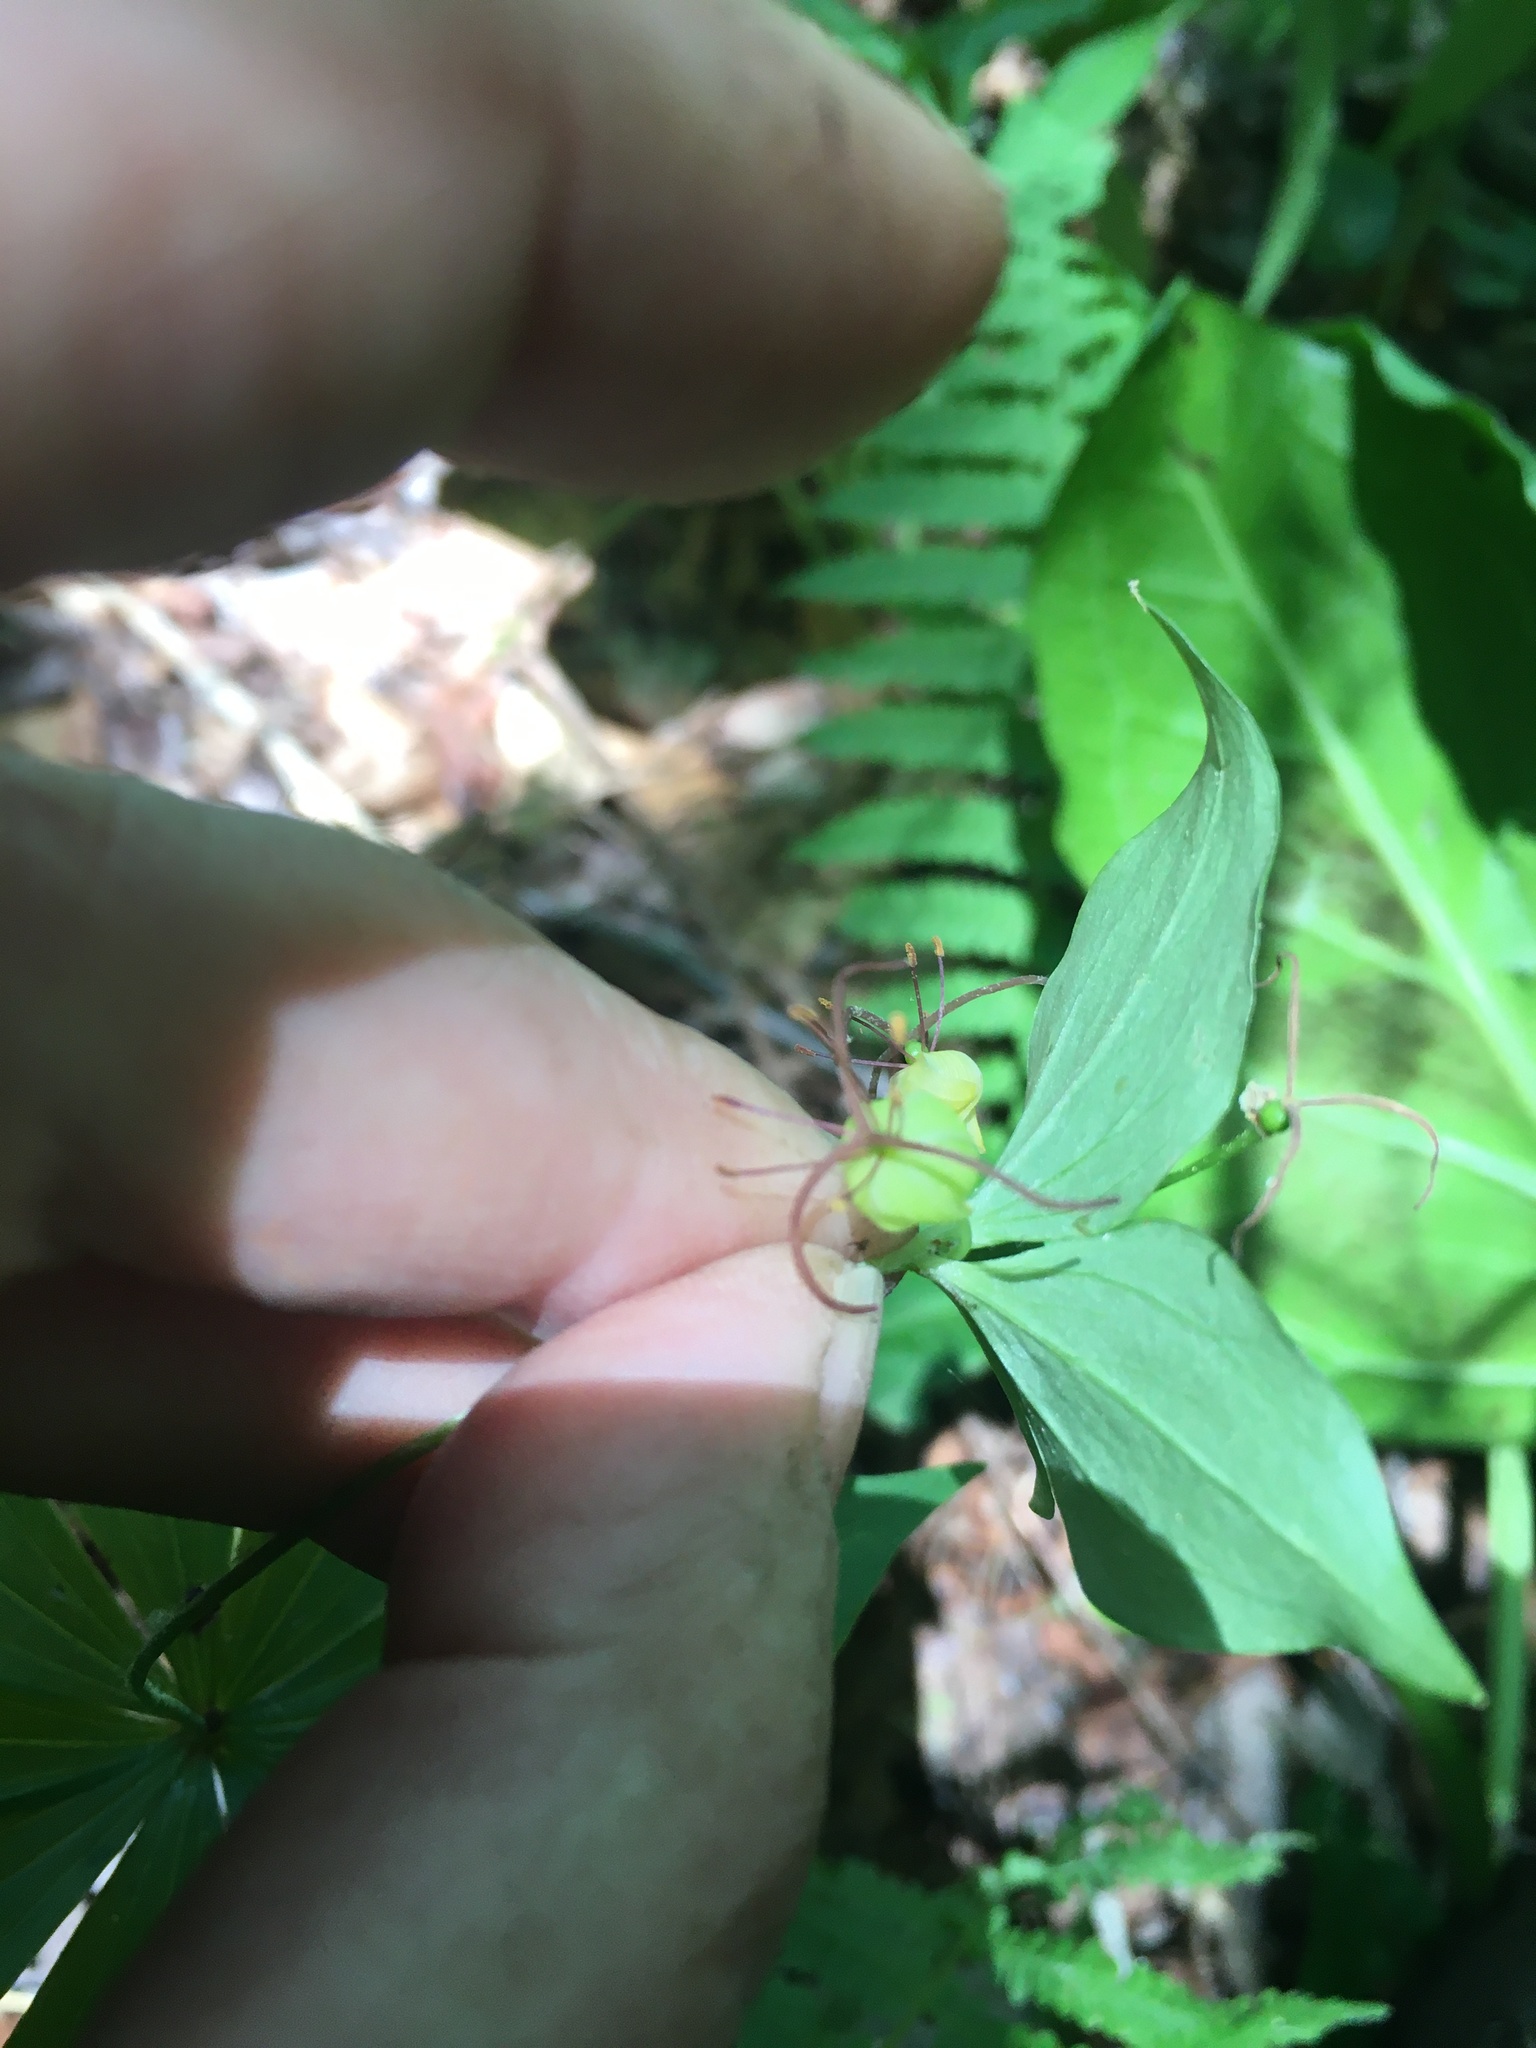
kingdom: Plantae
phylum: Tracheophyta
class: Liliopsida
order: Liliales
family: Liliaceae
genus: Medeola
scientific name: Medeola virginiana
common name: Indian cucumber-root
